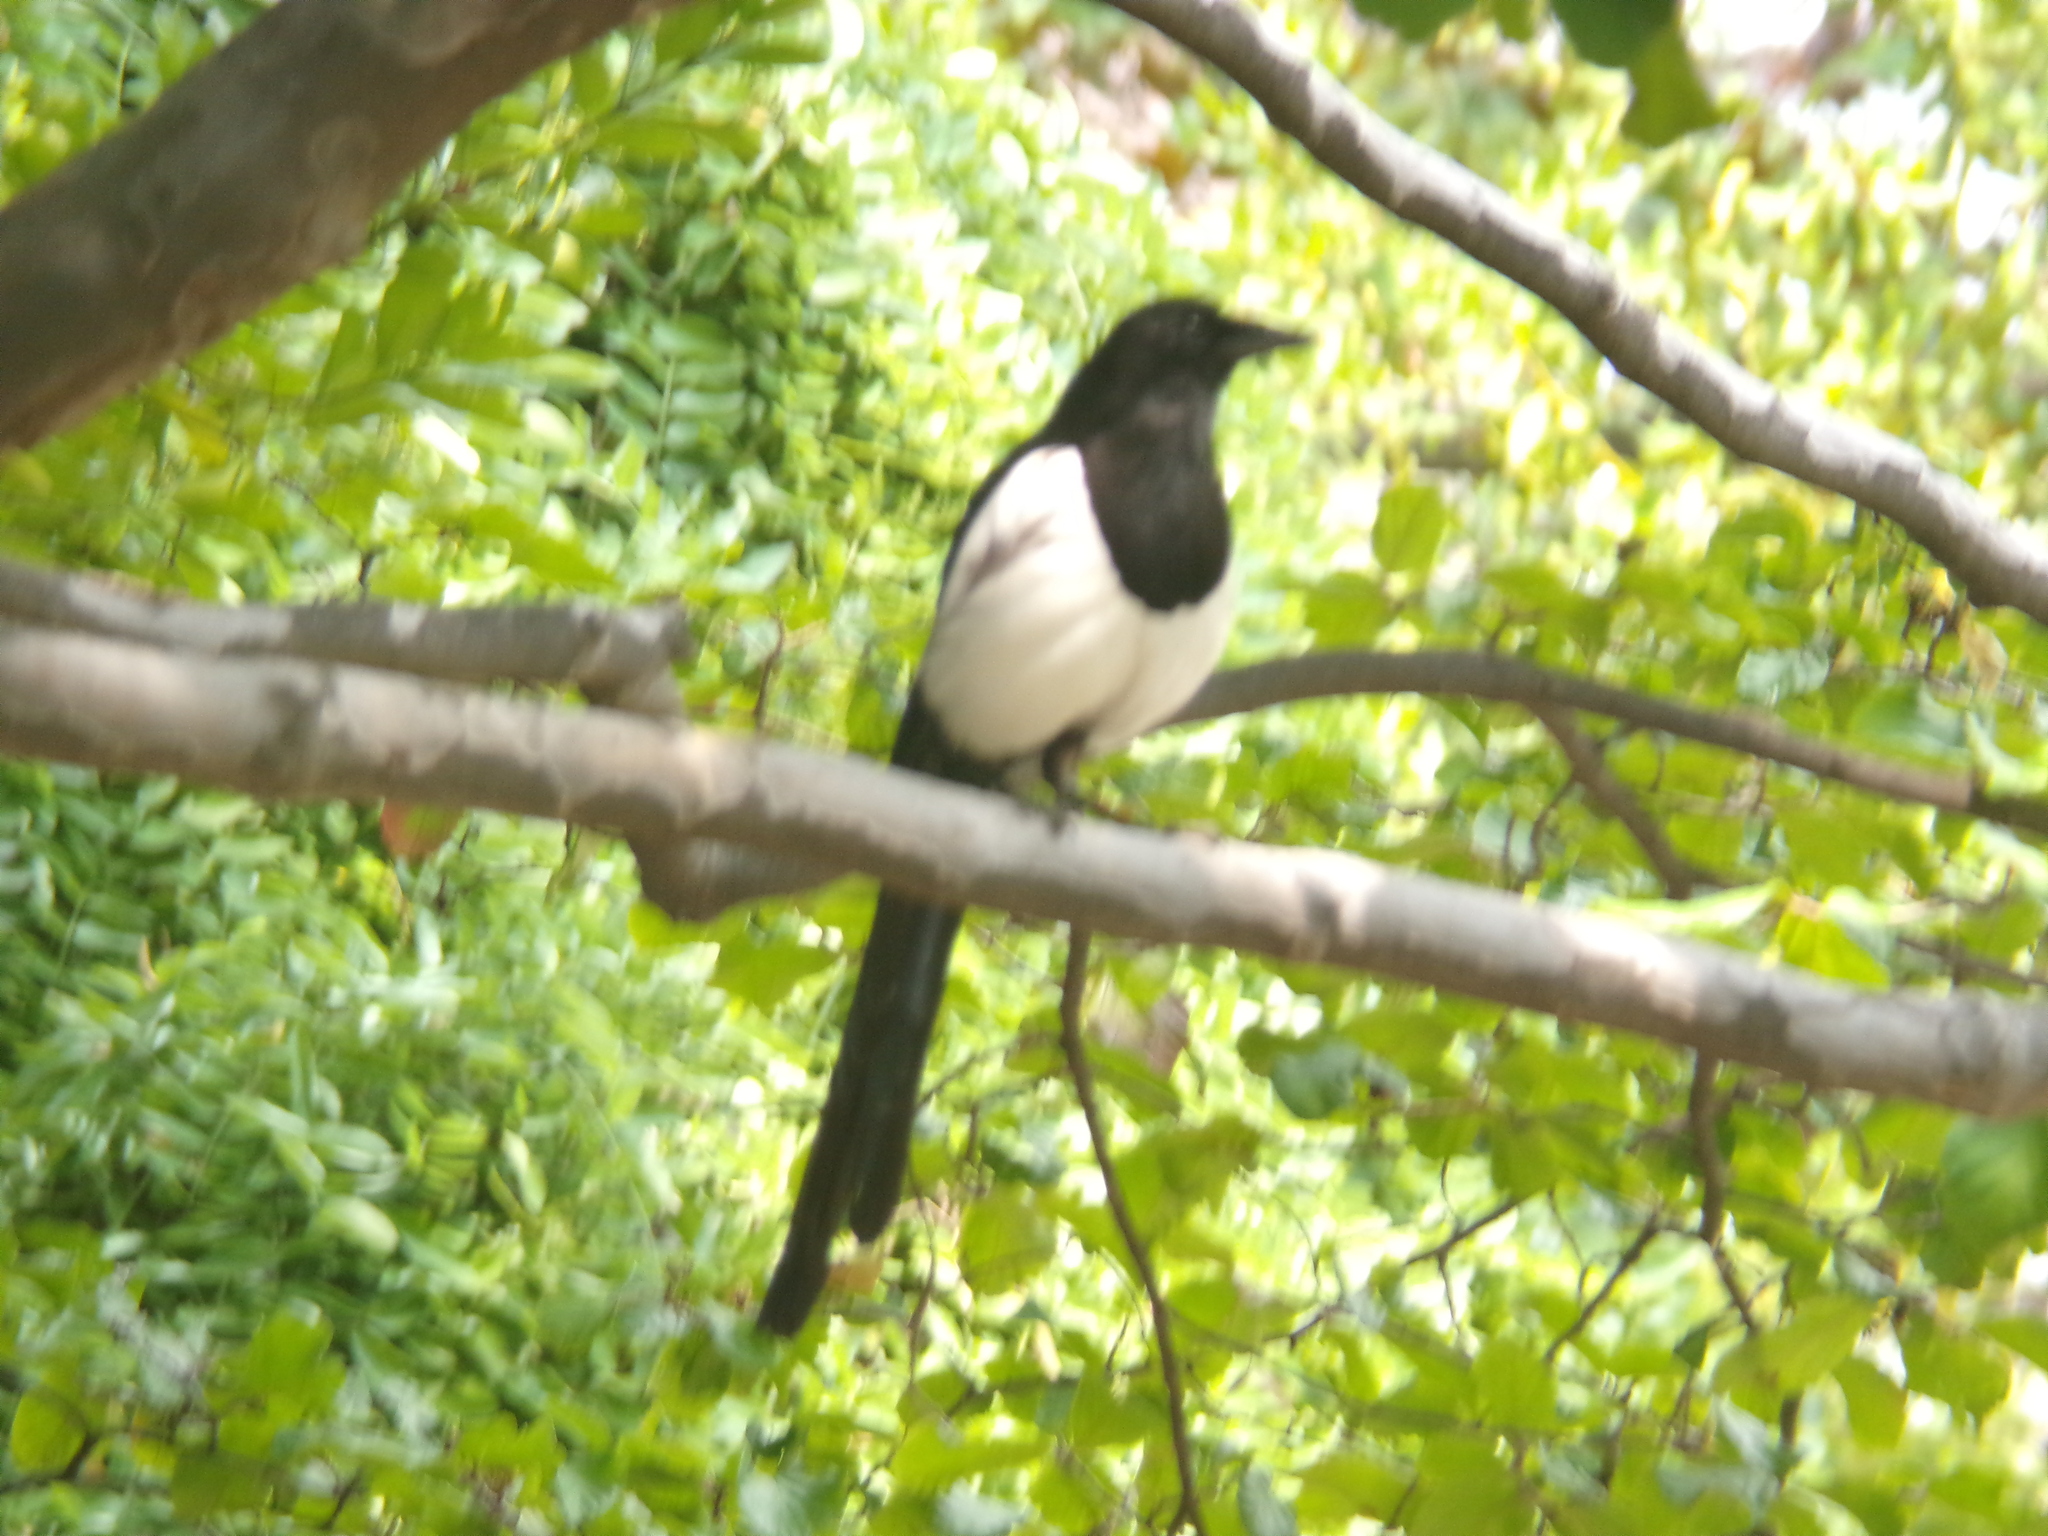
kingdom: Animalia
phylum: Chordata
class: Aves
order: Passeriformes
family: Corvidae
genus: Pica
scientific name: Pica pica
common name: Eurasian magpie
